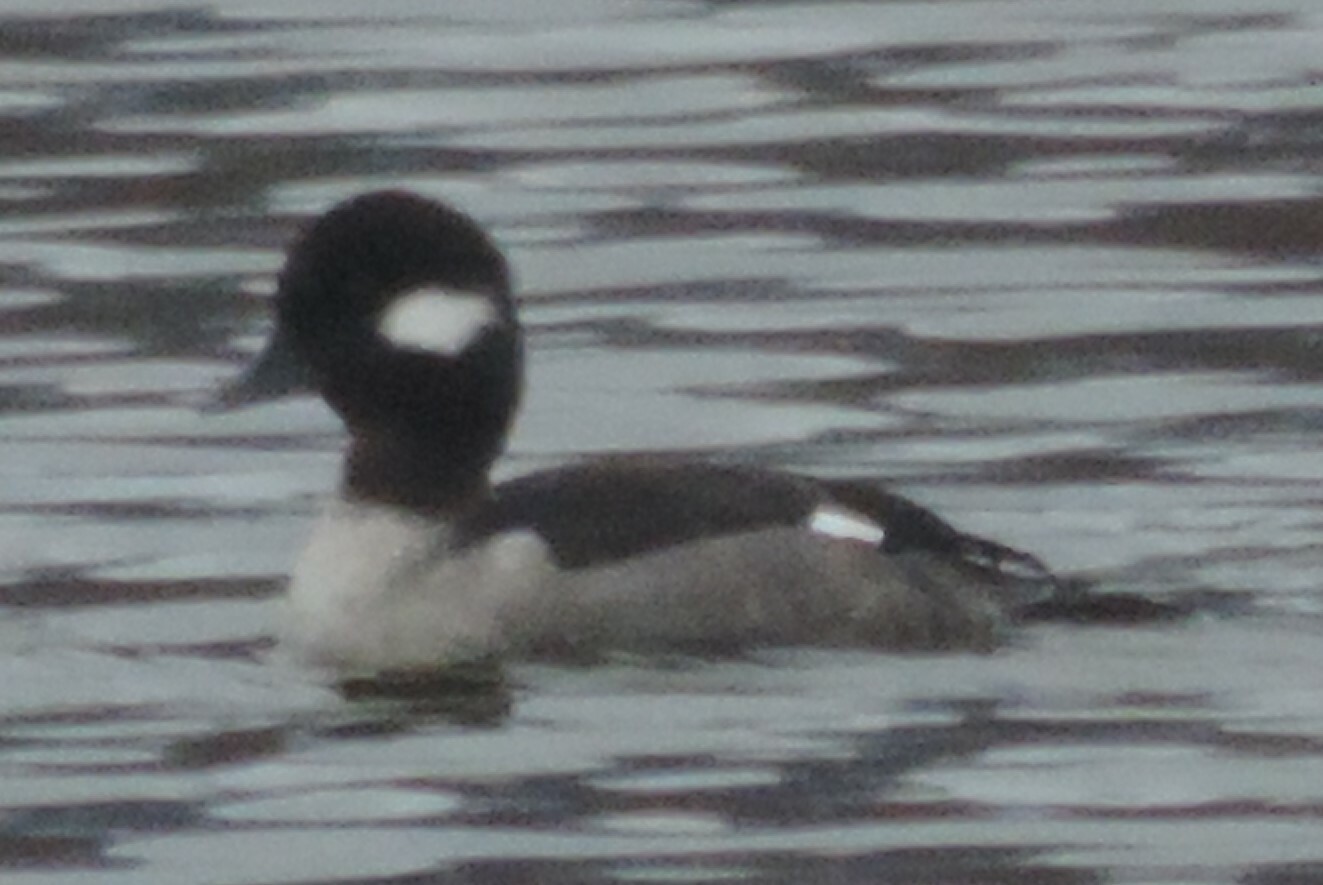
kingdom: Animalia
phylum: Chordata
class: Aves
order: Anseriformes
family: Anatidae
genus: Bucephala
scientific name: Bucephala albeola
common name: Bufflehead
